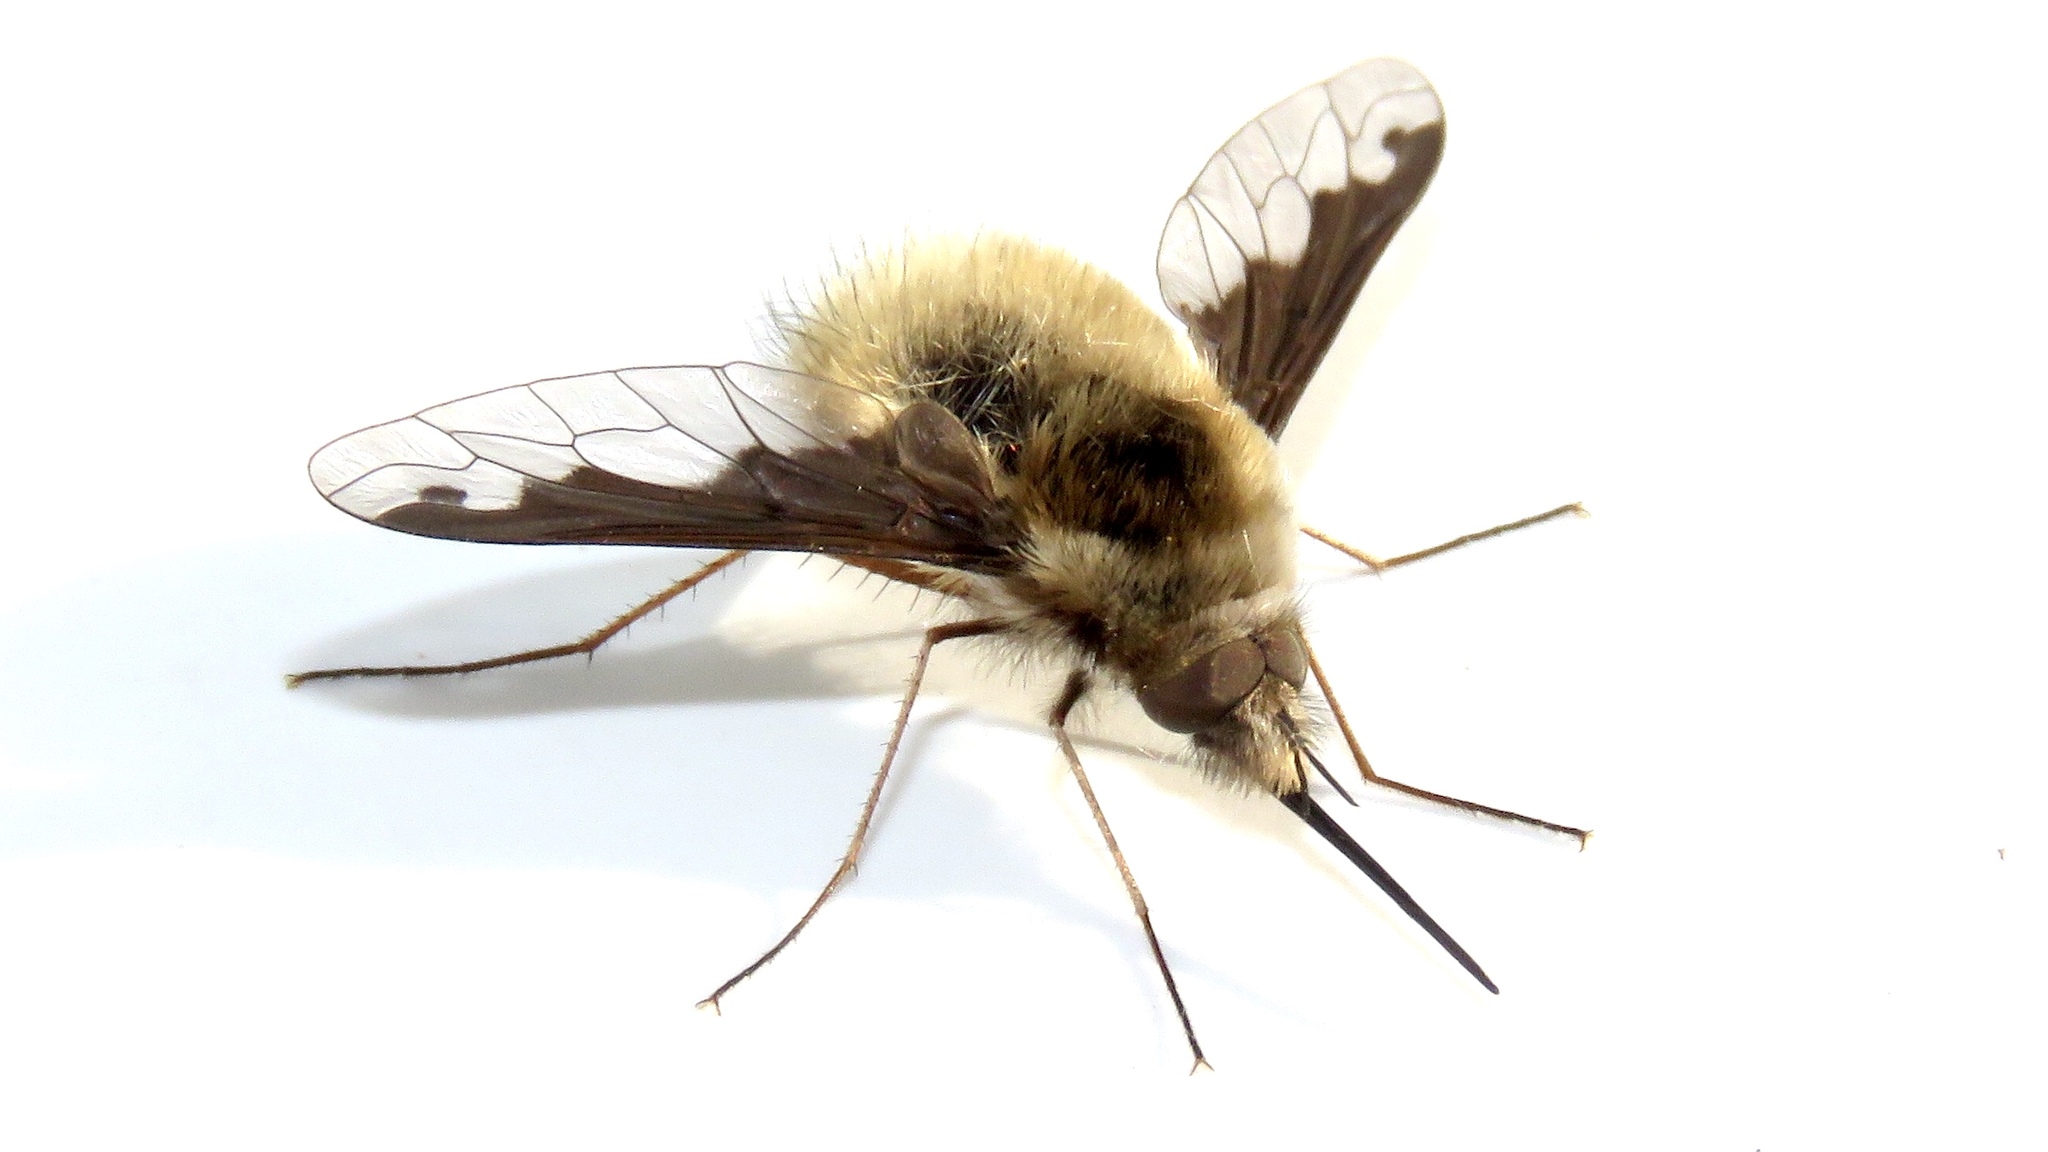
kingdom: Animalia
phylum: Arthropoda
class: Insecta
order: Diptera
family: Bombyliidae
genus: Bombylius
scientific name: Bombylius major
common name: Bee fly
